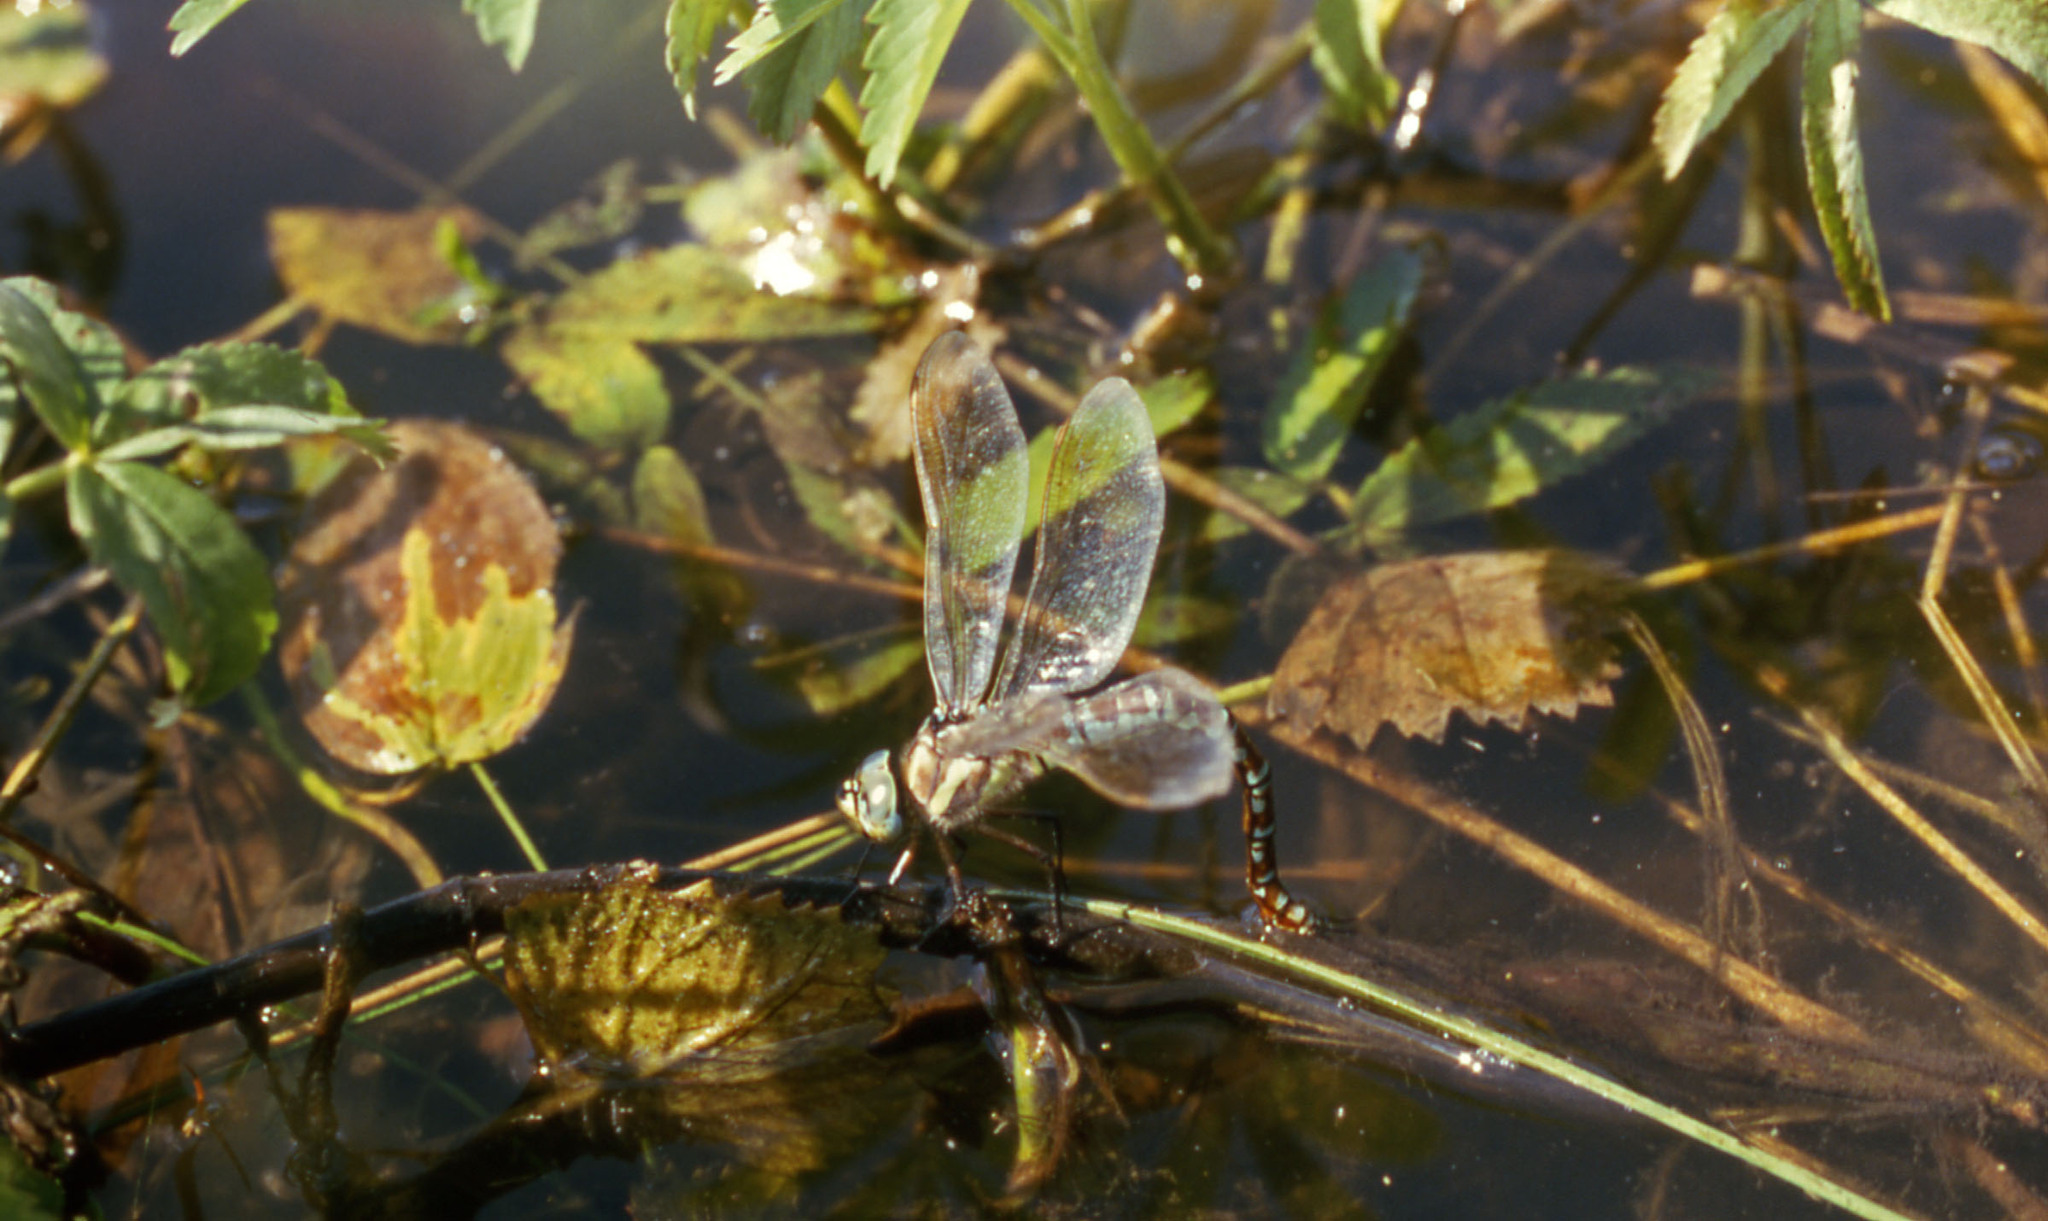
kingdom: Animalia
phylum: Arthropoda
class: Insecta
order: Odonata
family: Aeshnidae
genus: Aeshna
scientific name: Aeshna crenata
